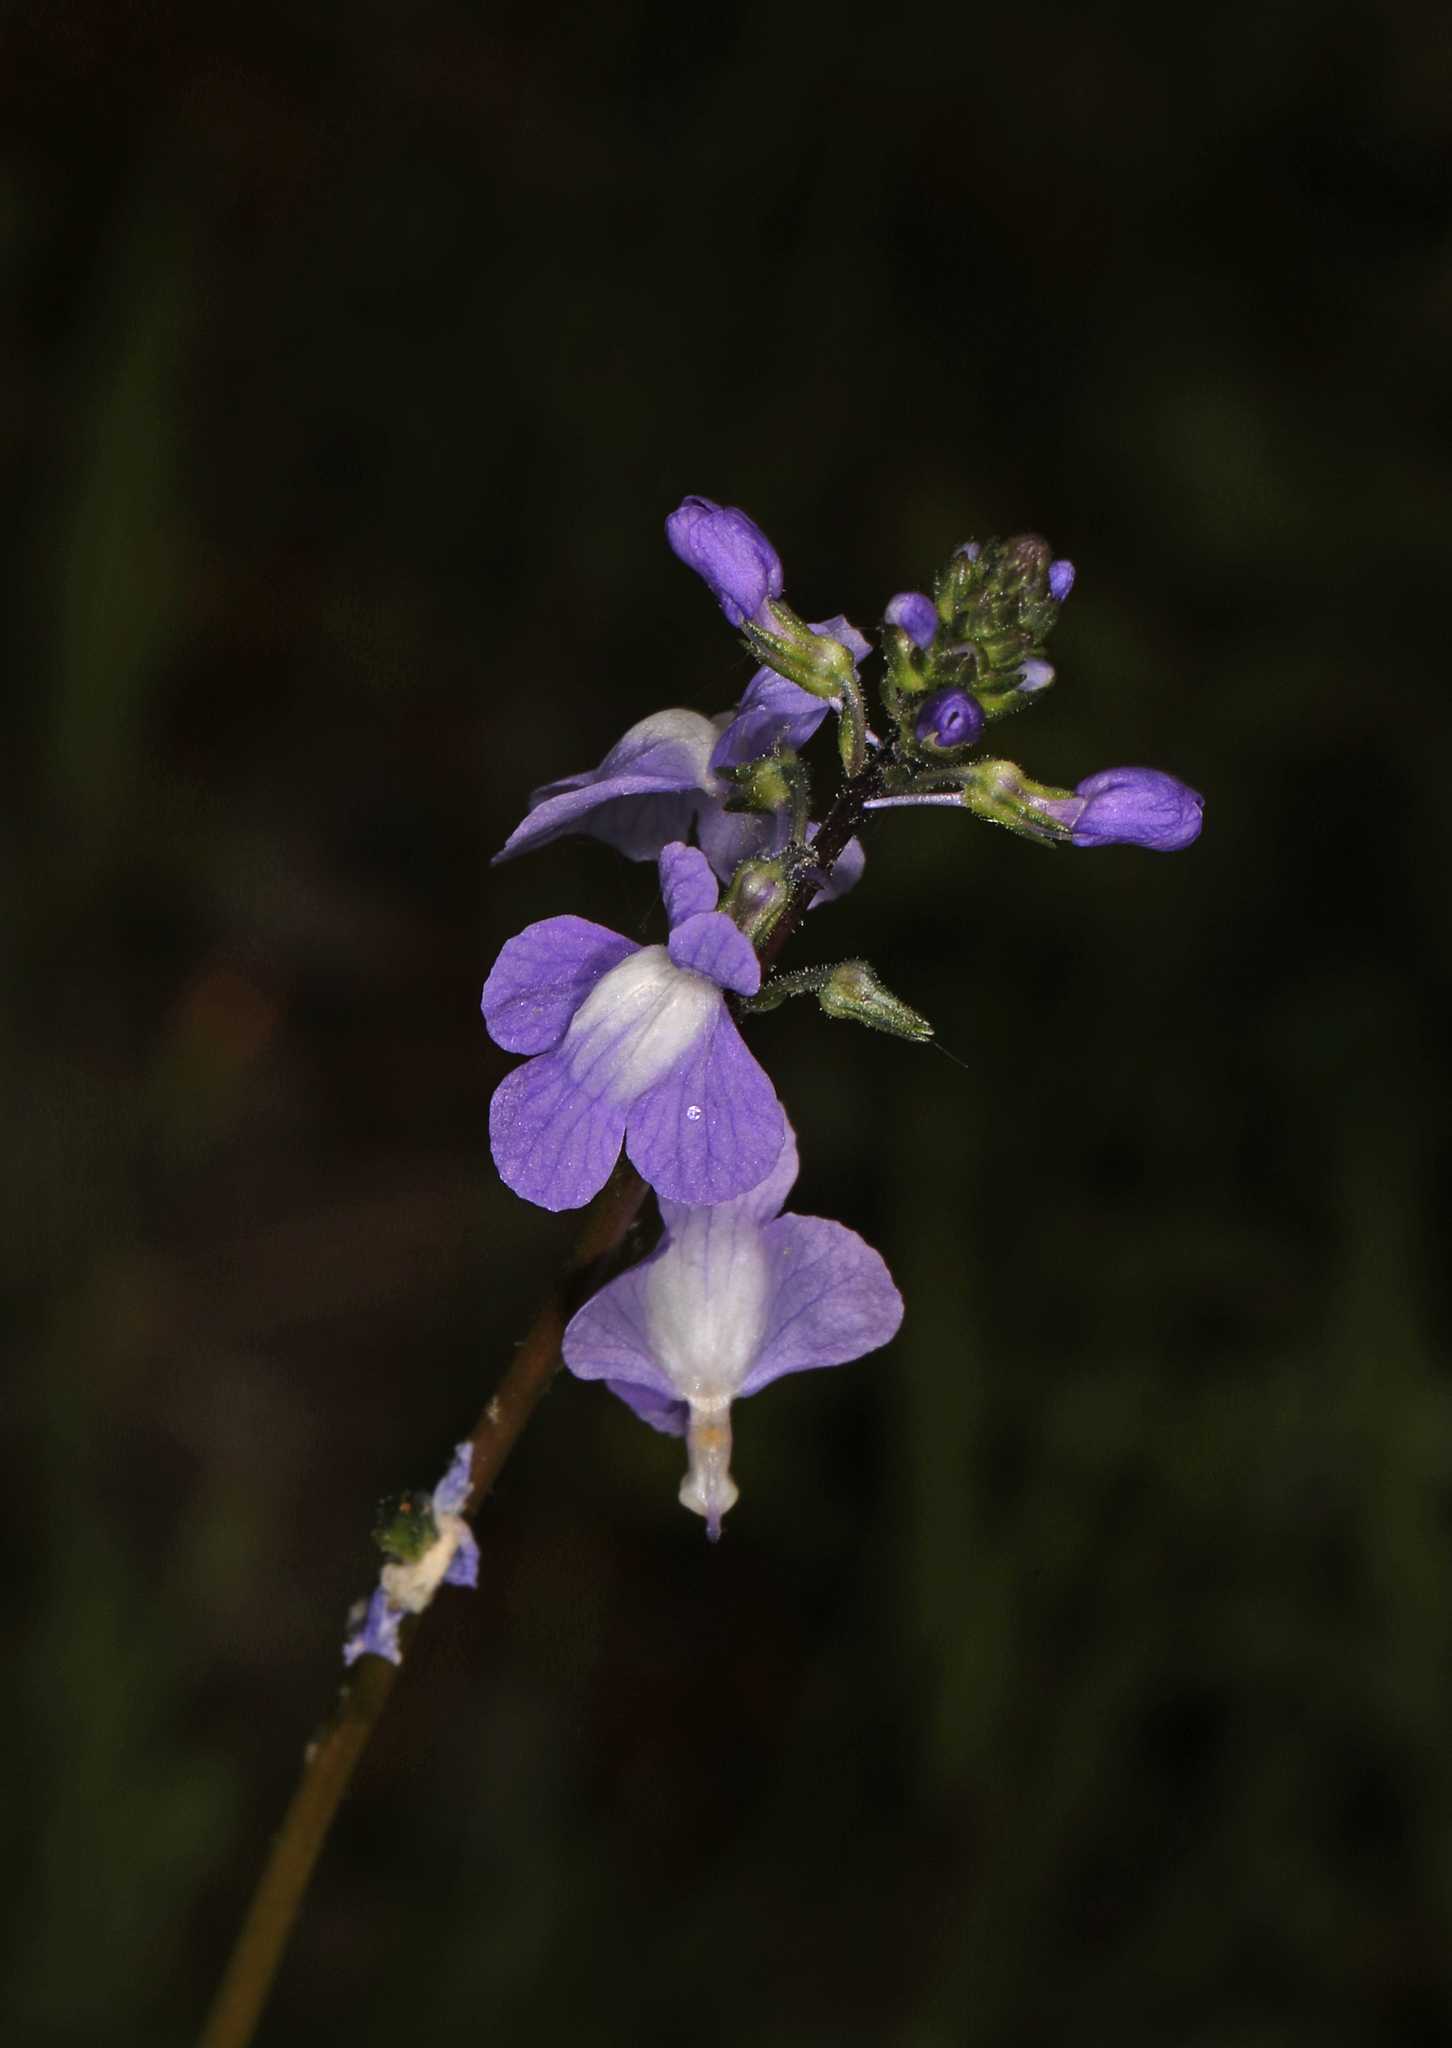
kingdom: Plantae
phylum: Tracheophyta
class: Magnoliopsida
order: Lamiales
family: Plantaginaceae
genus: Nuttallanthus
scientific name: Nuttallanthus canadensis
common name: Blue toadflax
